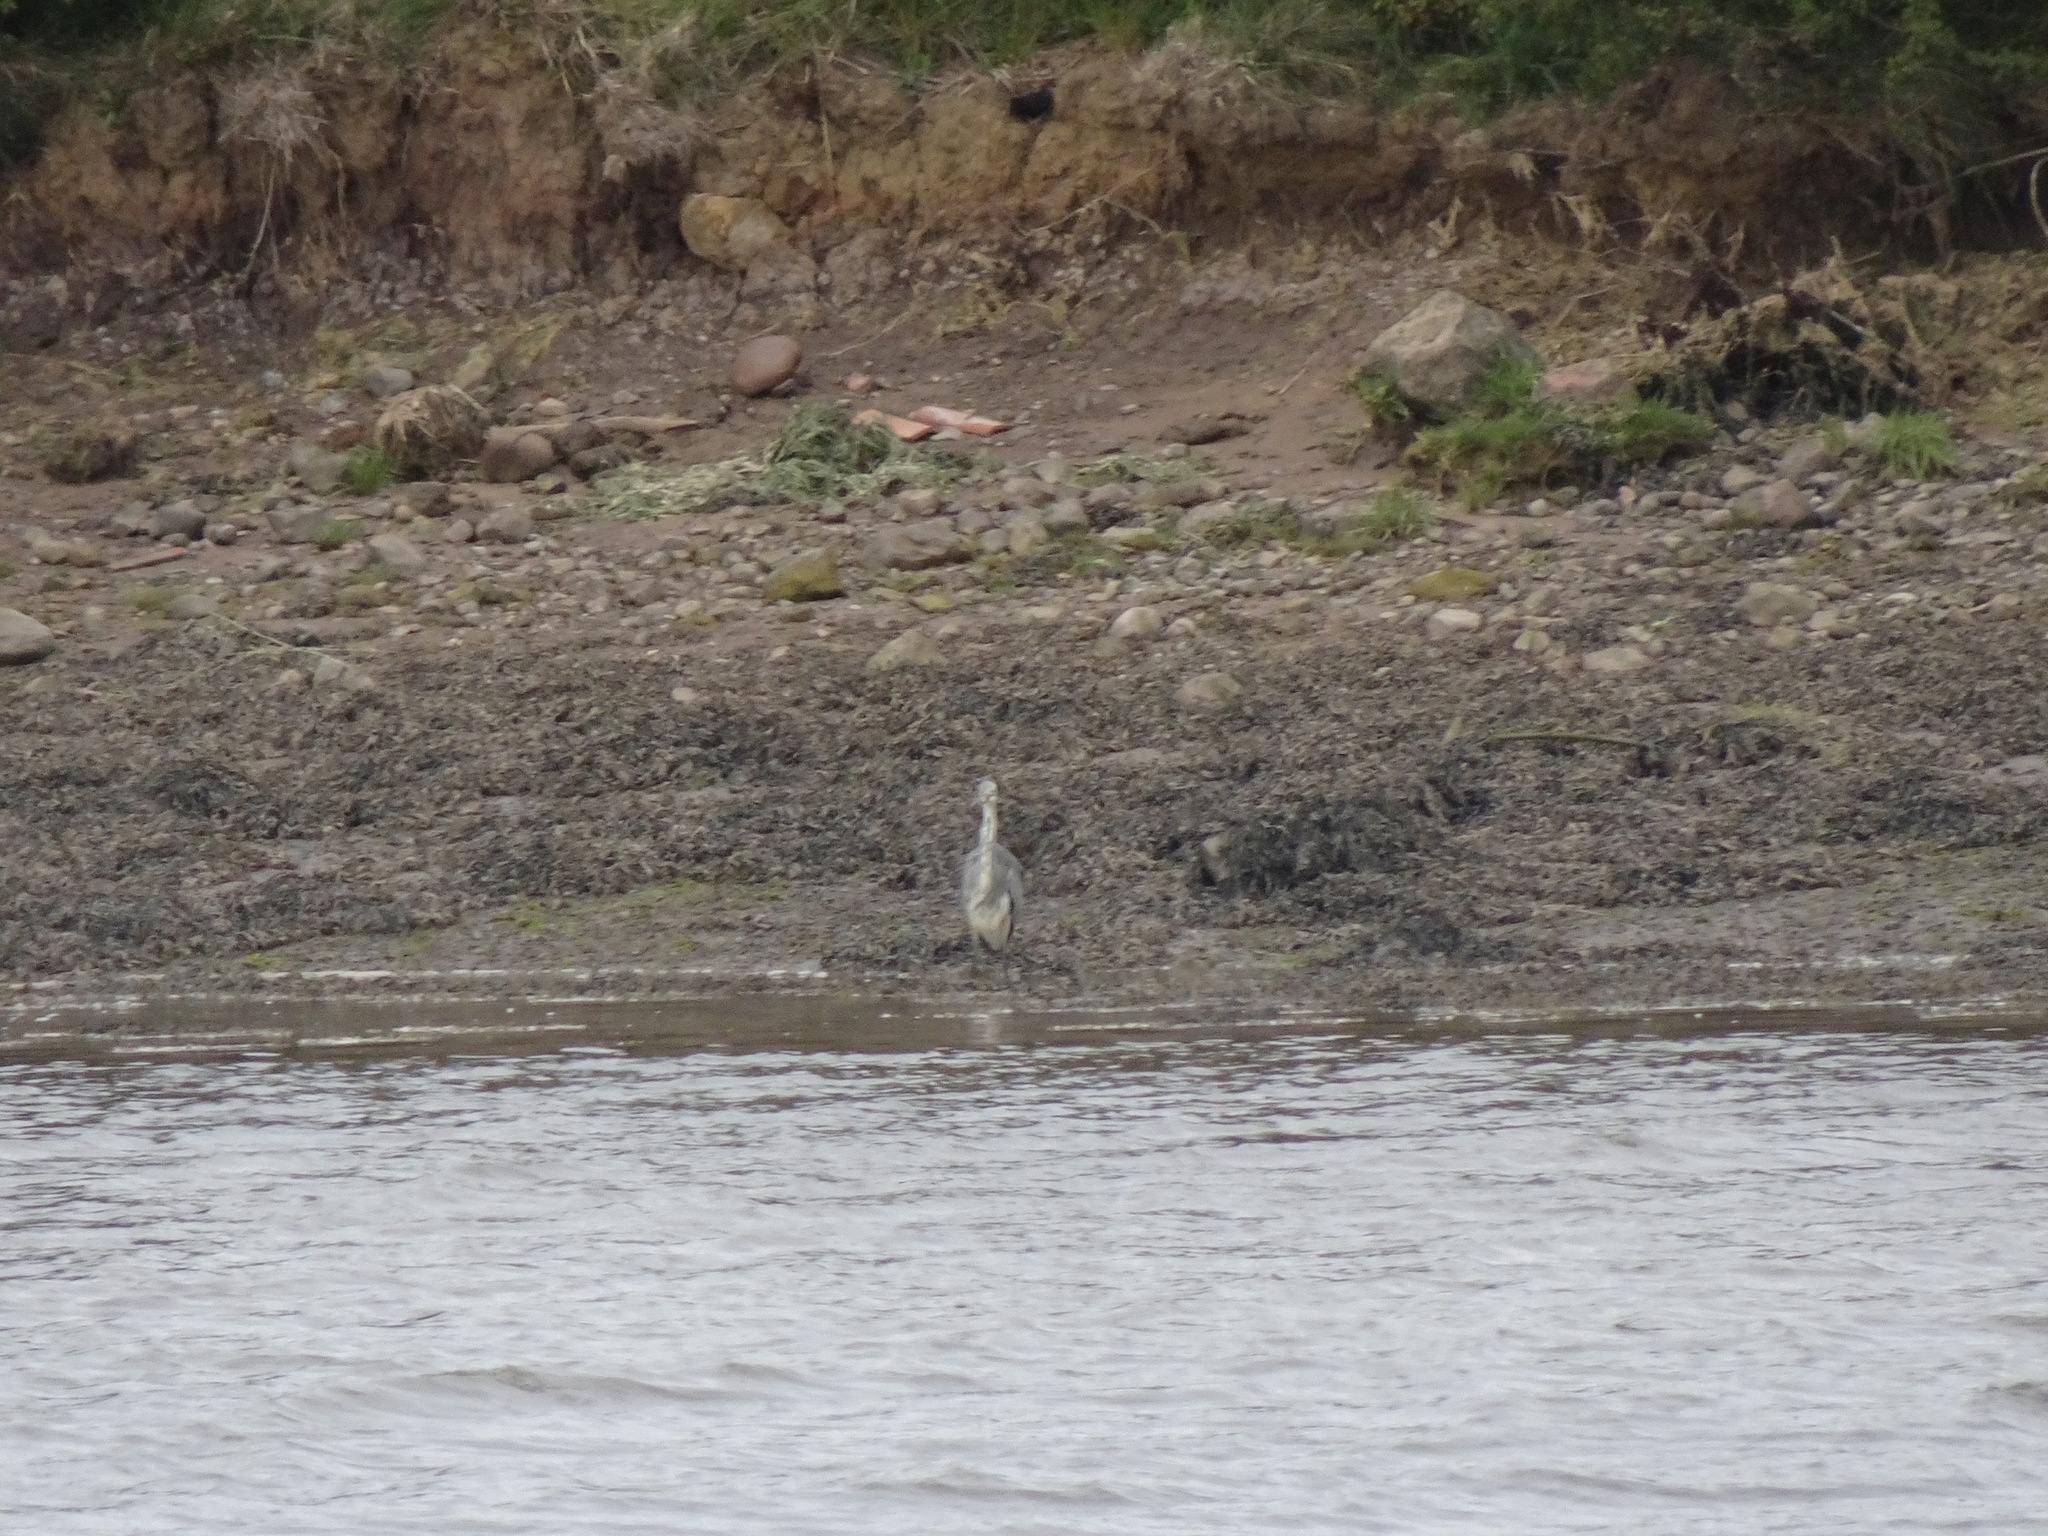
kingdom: Animalia
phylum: Chordata
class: Aves
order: Pelecaniformes
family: Ardeidae
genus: Ardea
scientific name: Ardea cinerea
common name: Grey heron
